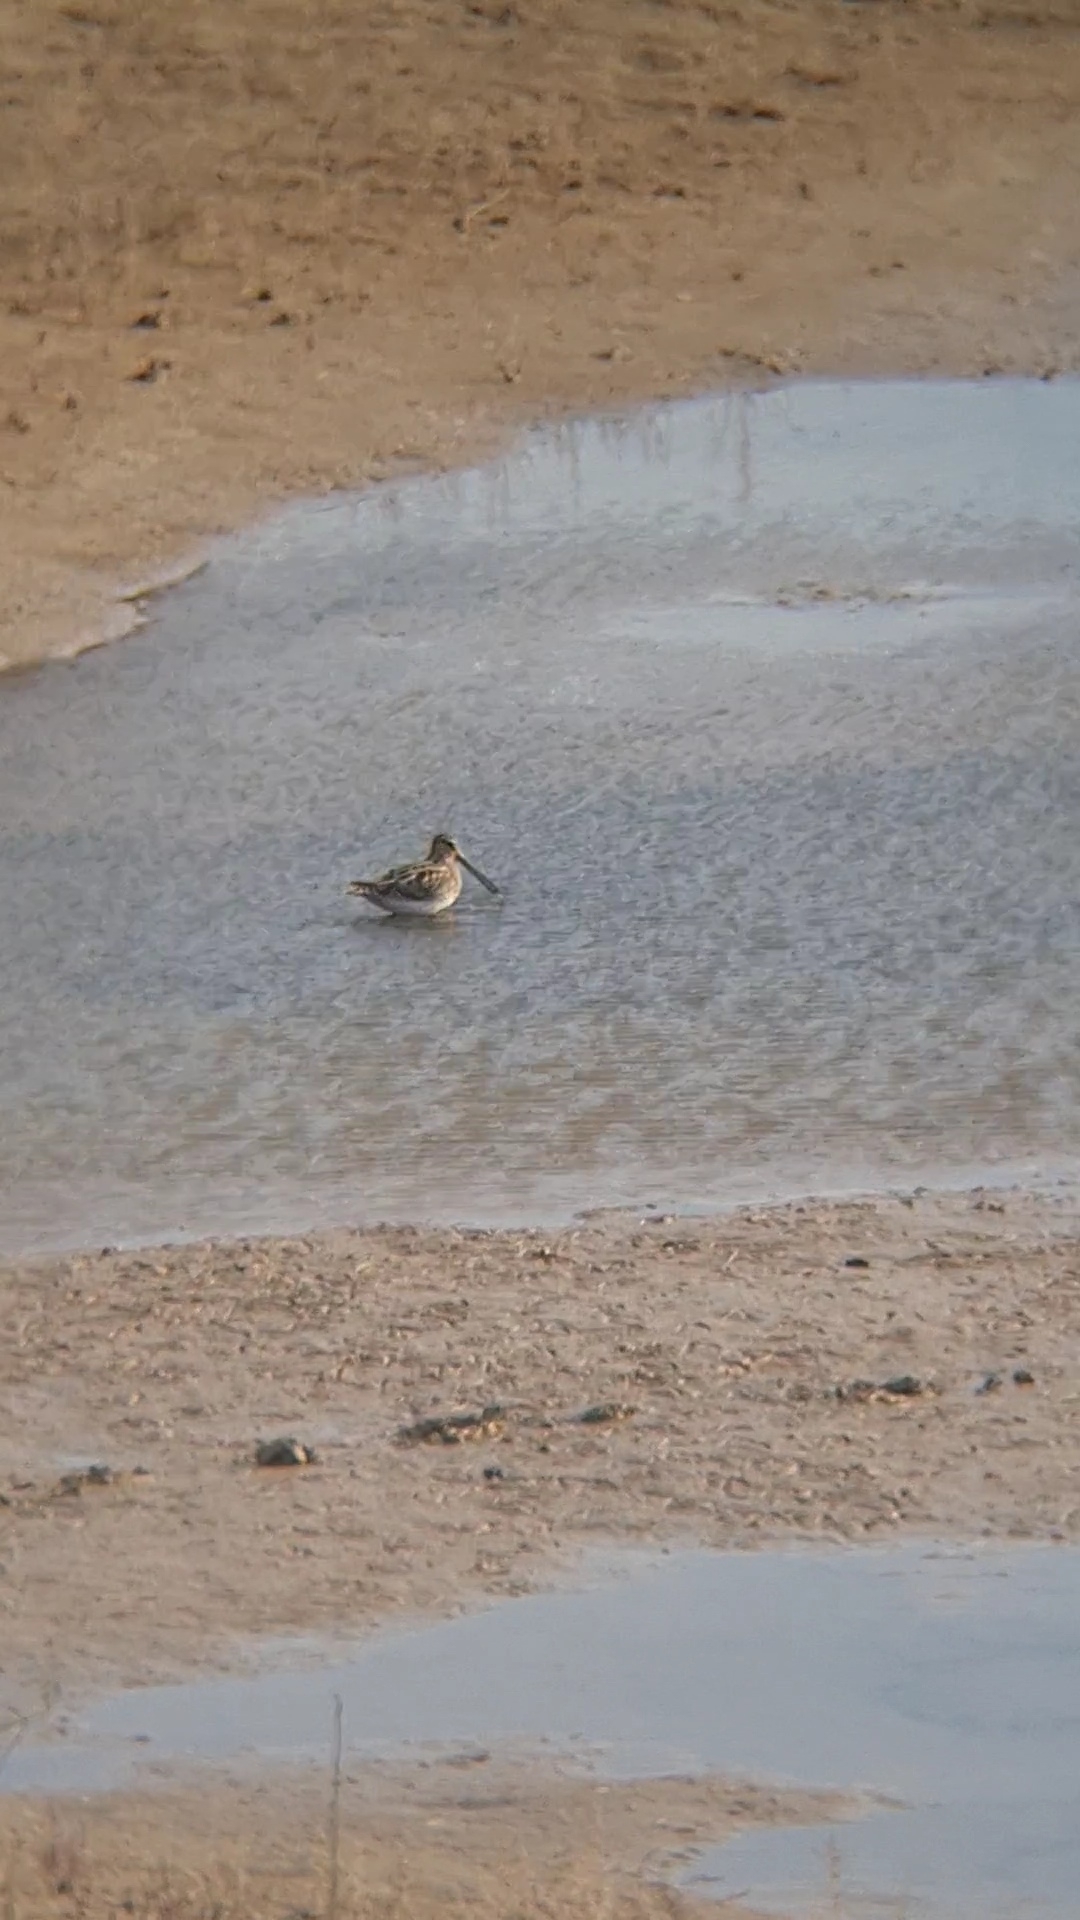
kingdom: Animalia
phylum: Chordata
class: Aves
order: Charadriiformes
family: Scolopacidae
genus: Gallinago
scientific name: Gallinago gallinago
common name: Common snipe
